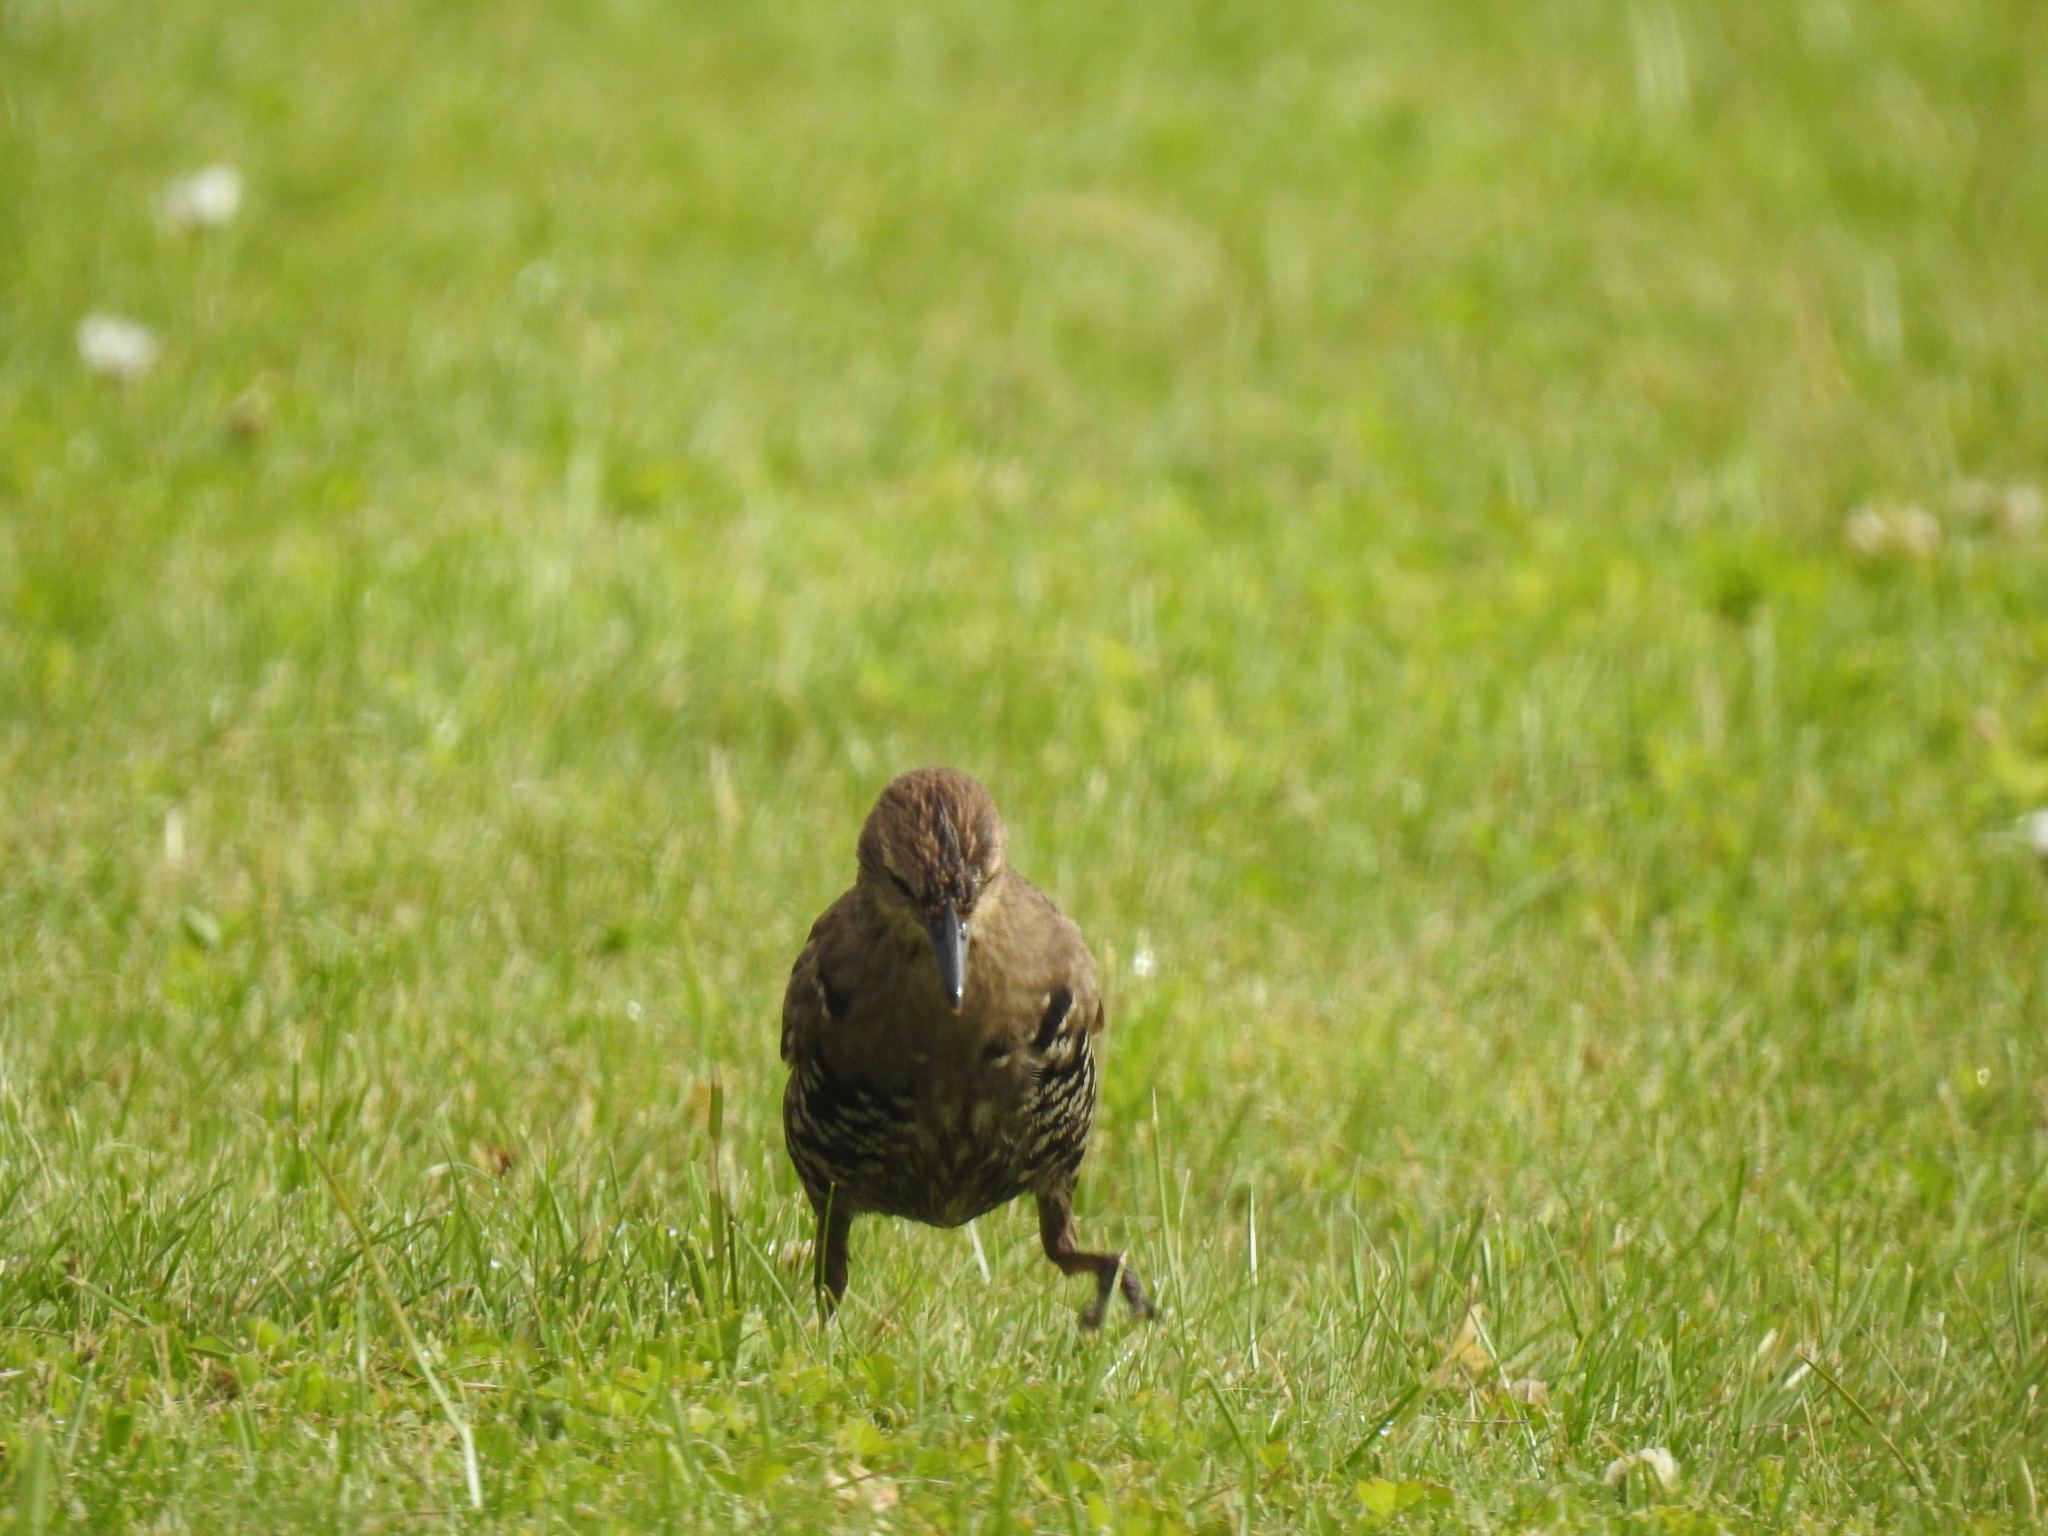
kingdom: Animalia
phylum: Chordata
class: Aves
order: Passeriformes
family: Sturnidae
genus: Sturnus
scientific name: Sturnus vulgaris
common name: Common starling
